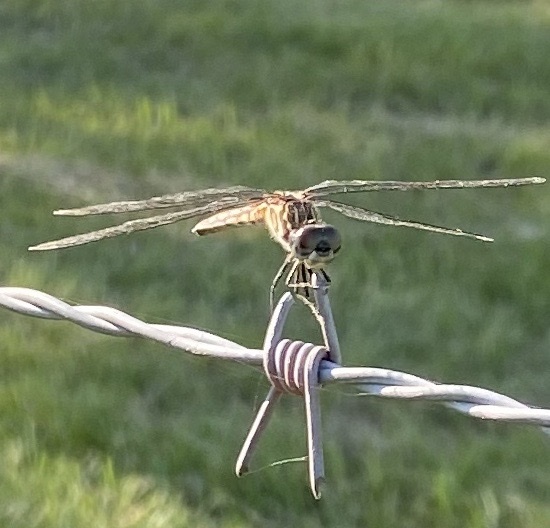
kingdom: Animalia
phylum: Arthropoda
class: Insecta
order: Odonata
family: Libellulidae
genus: Pachydiplax
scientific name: Pachydiplax longipennis
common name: Blue dasher
